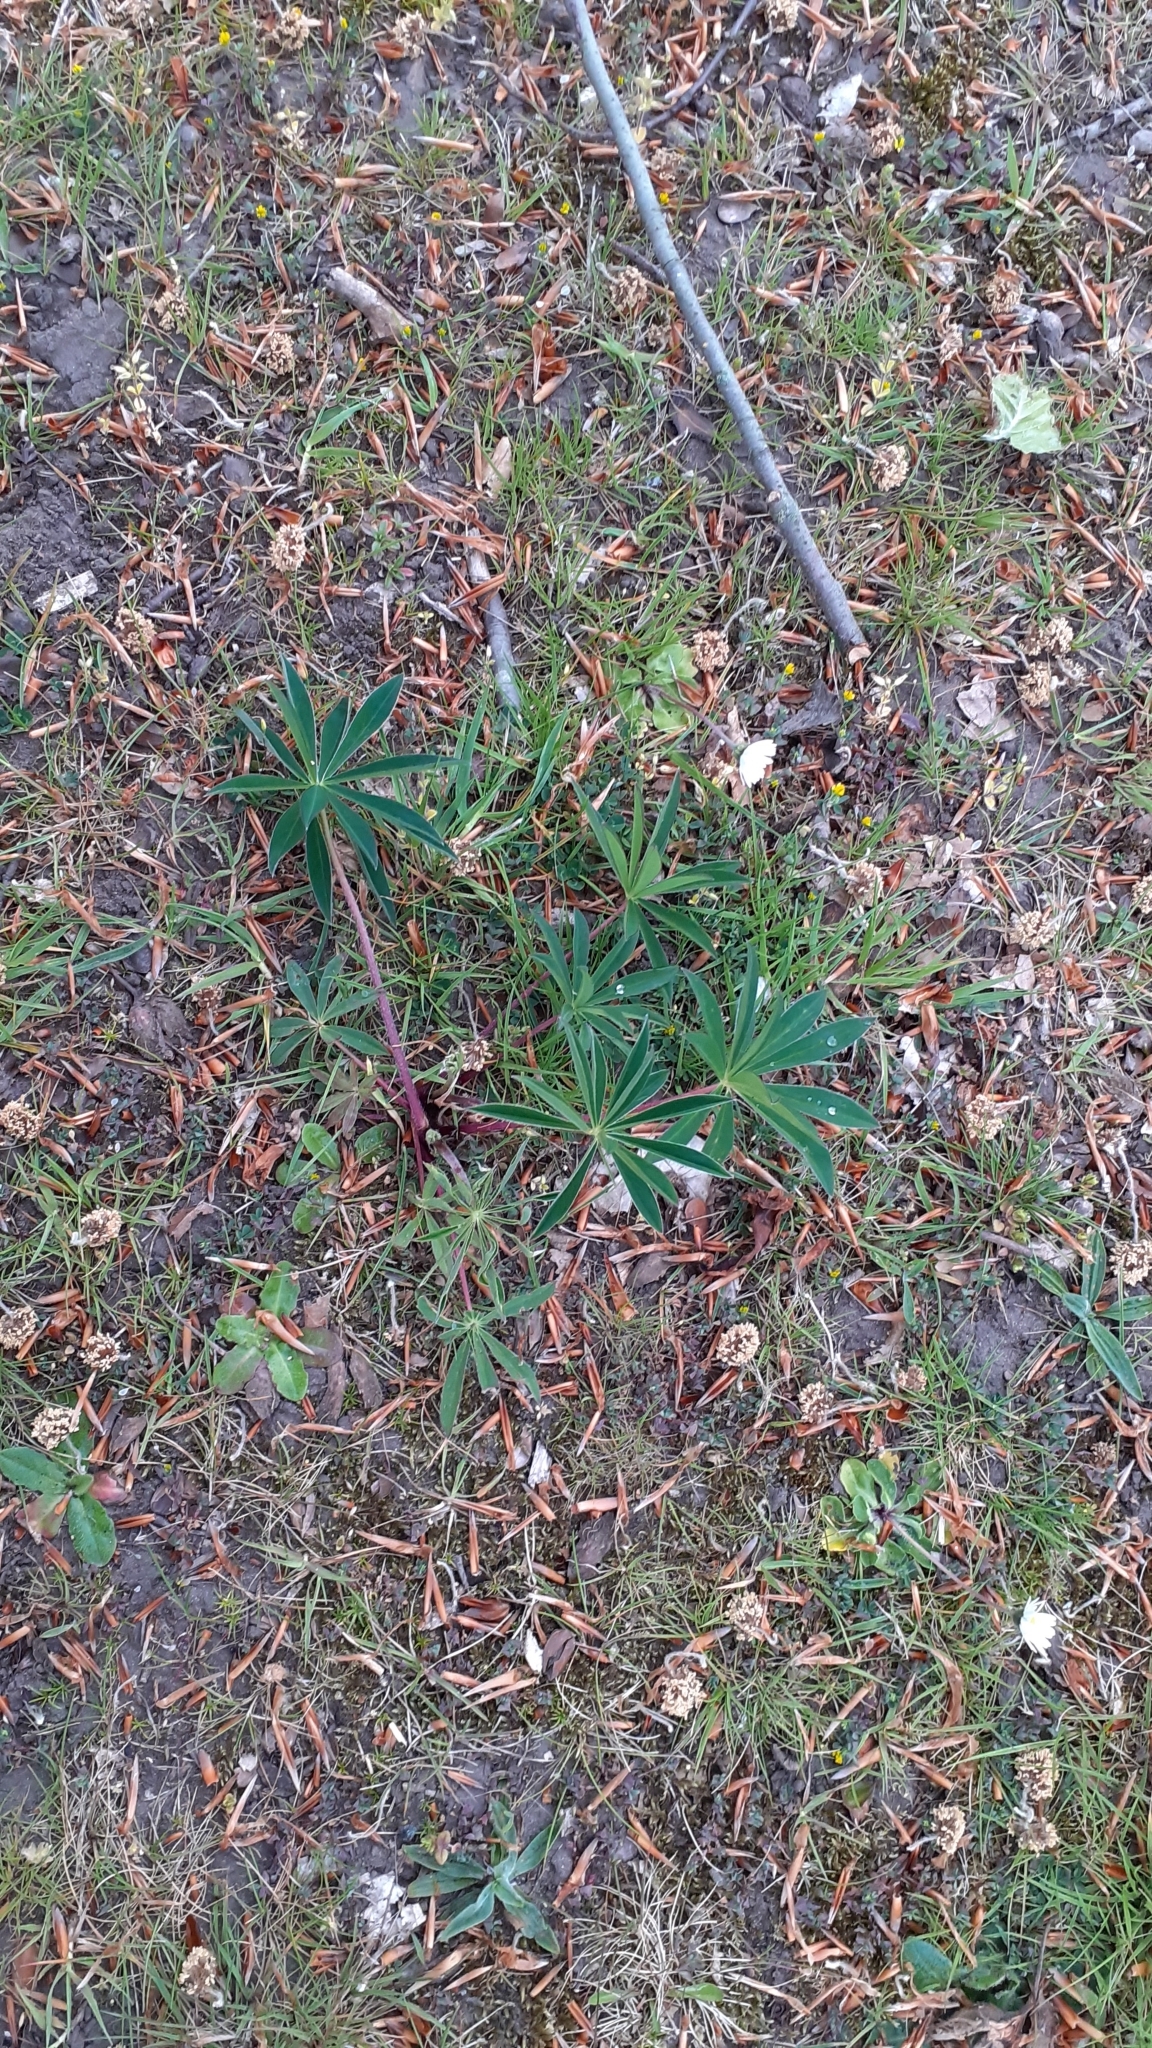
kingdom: Plantae
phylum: Tracheophyta
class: Magnoliopsida
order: Fabales
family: Fabaceae
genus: Lupinus
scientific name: Lupinus polyphyllus
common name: Garden lupin
